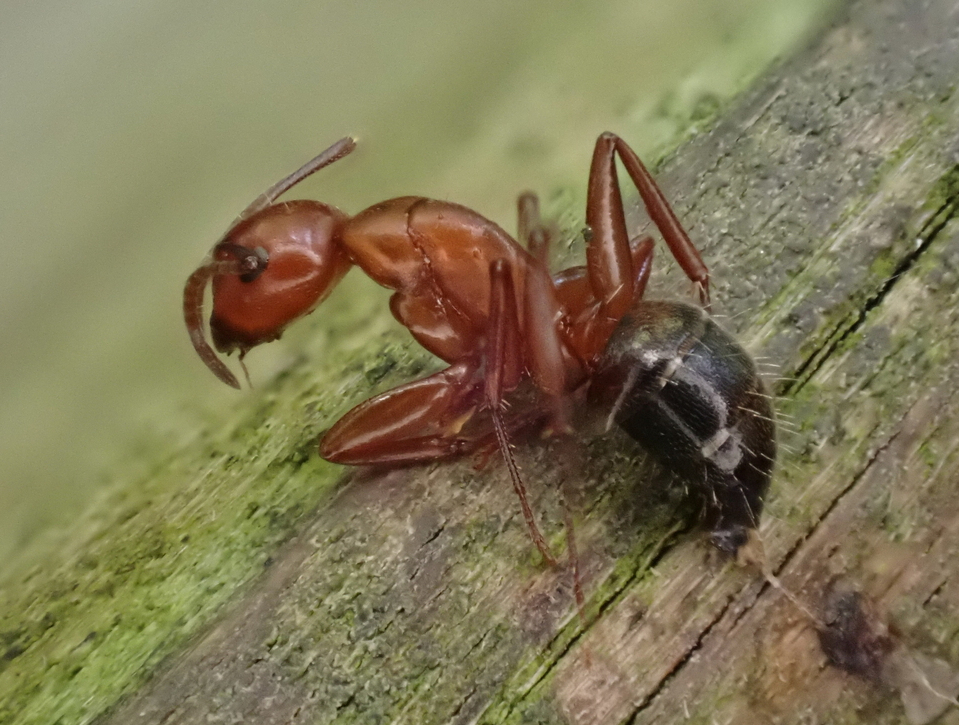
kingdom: Animalia
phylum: Arthropoda
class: Insecta
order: Hymenoptera
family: Formicidae
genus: Camponotus
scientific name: Camponotus snellingi
